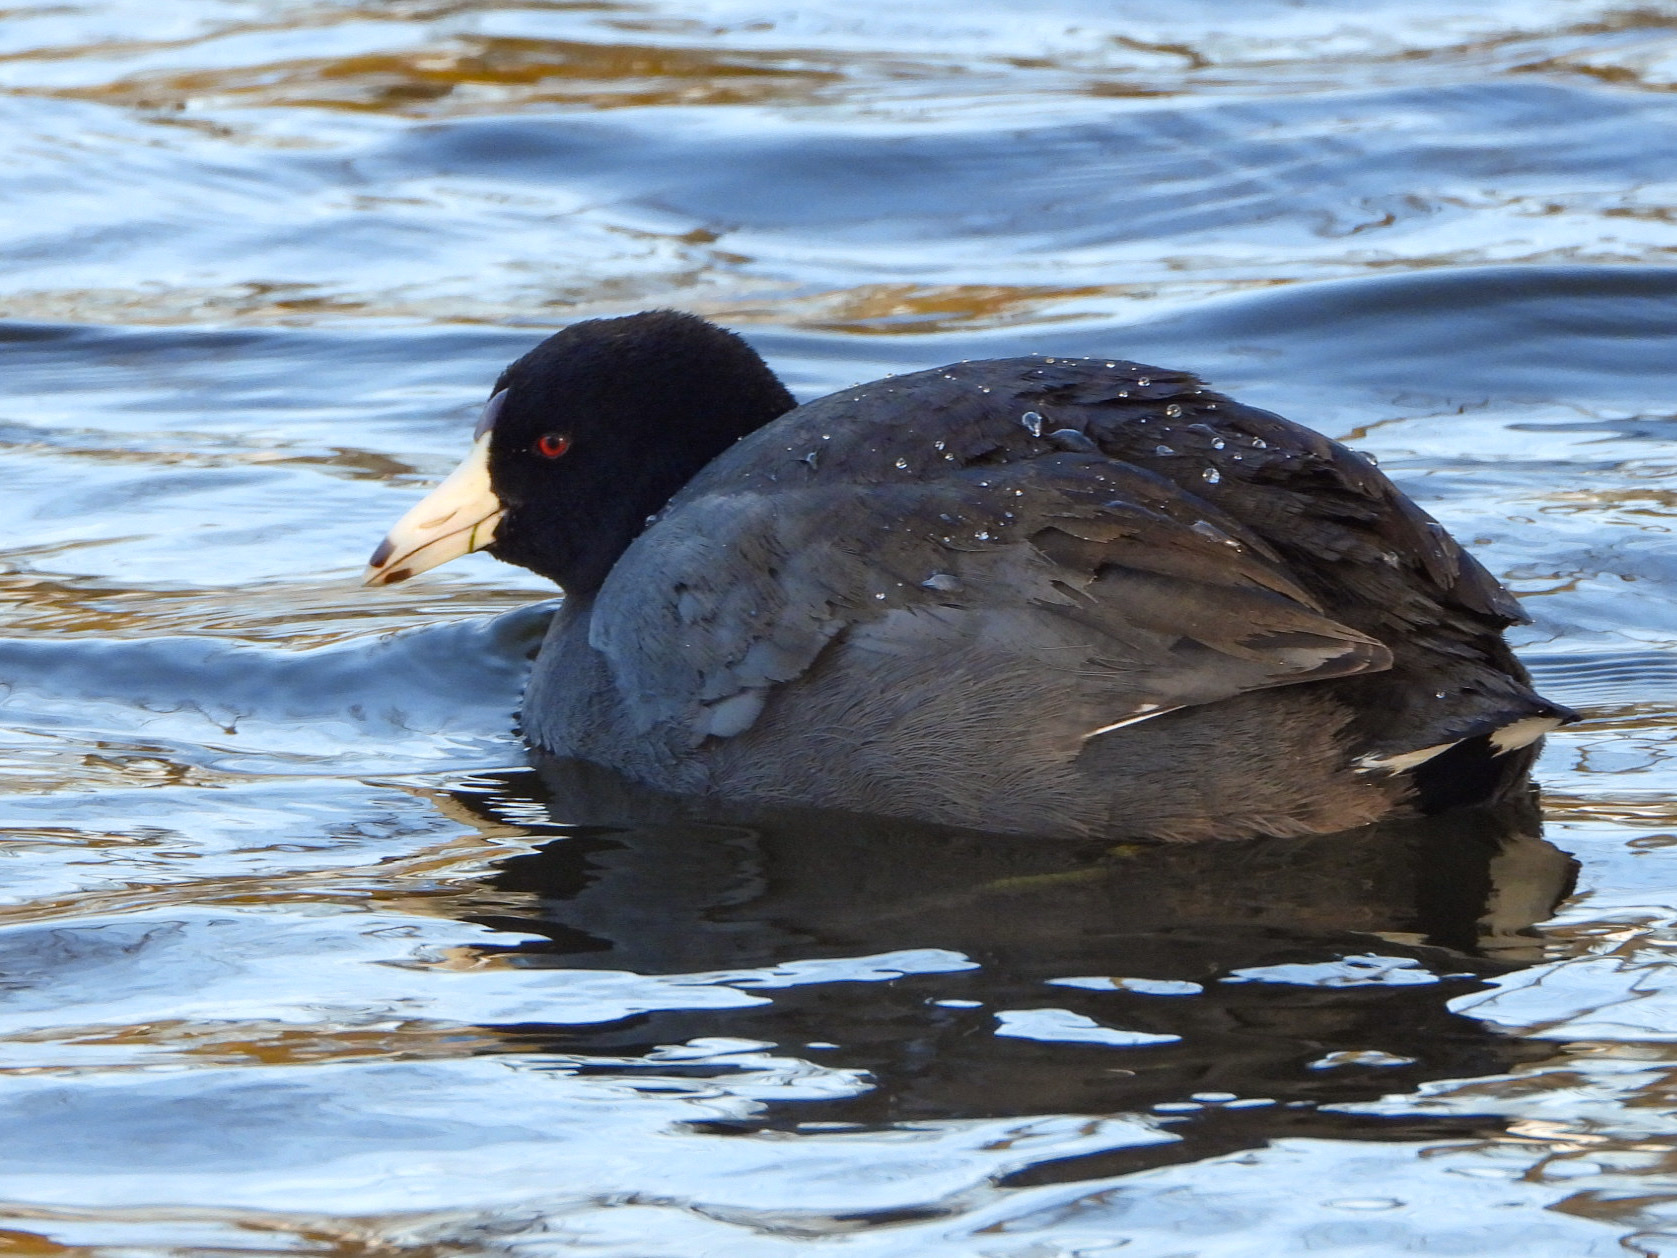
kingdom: Animalia
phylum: Chordata
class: Aves
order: Gruiformes
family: Rallidae
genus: Fulica
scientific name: Fulica americana
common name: American coot
